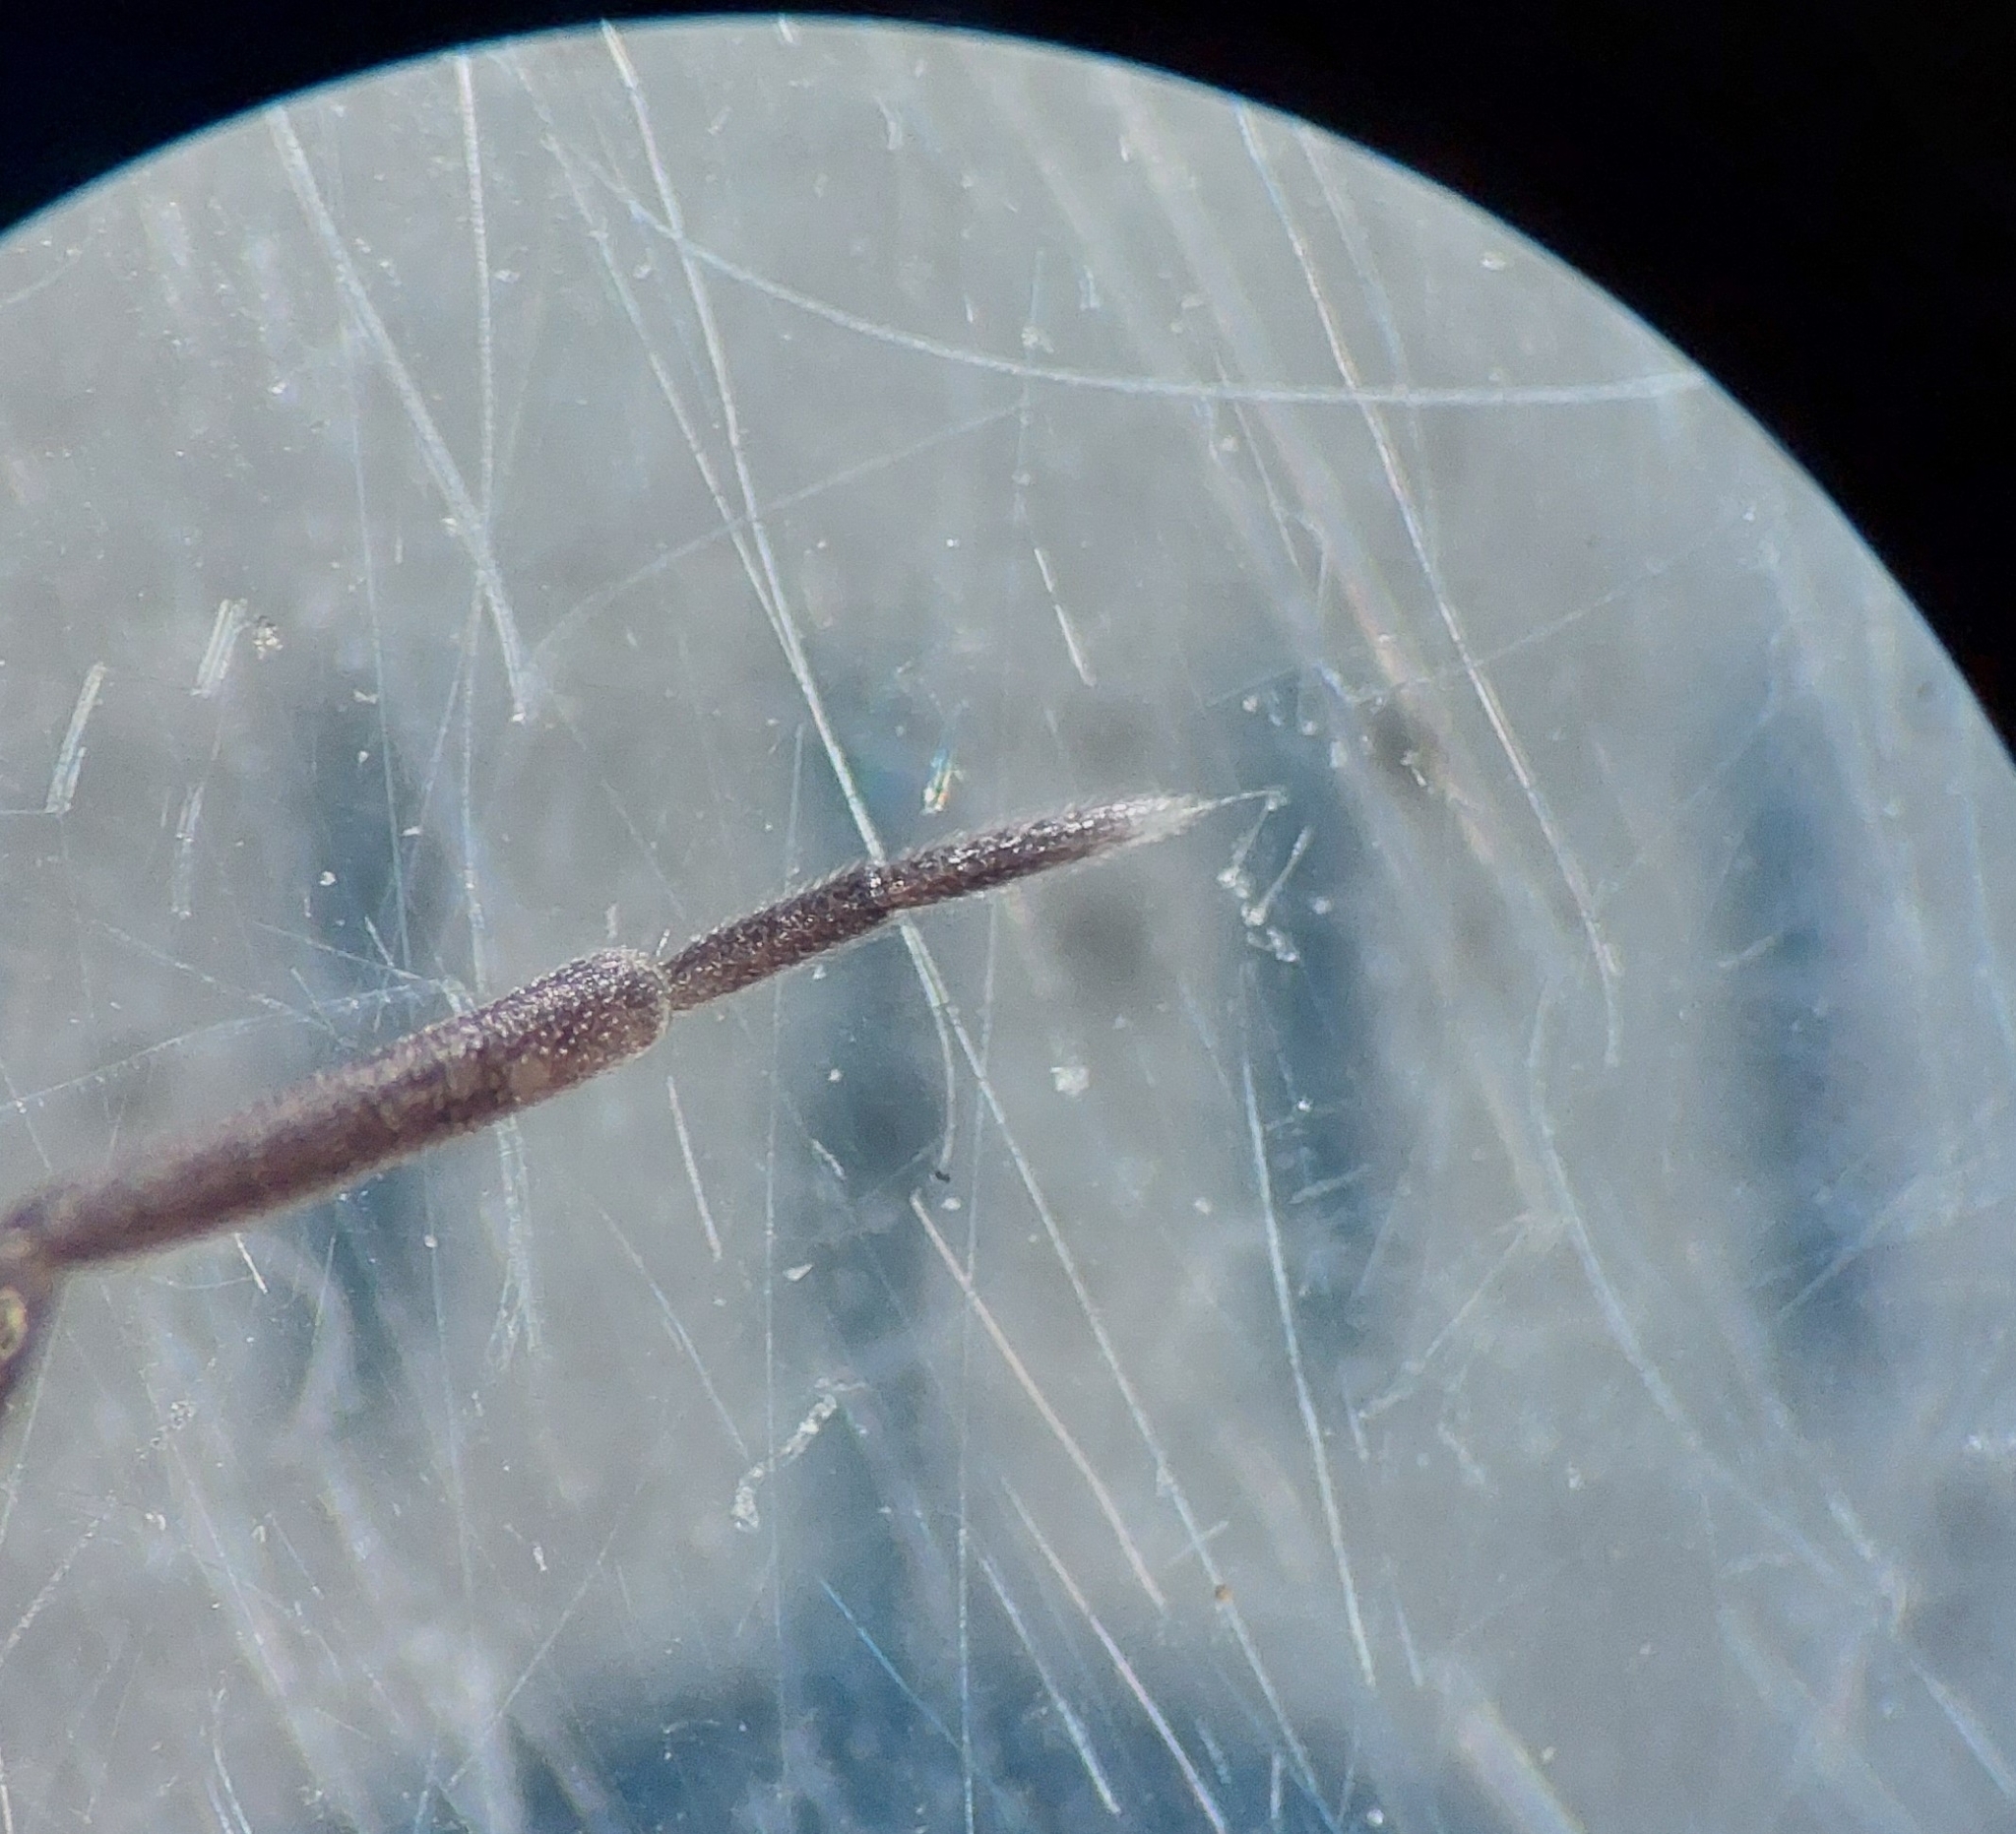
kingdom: Animalia
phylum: Arthropoda
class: Malacostraca
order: Isopoda
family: Cylisticidae
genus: Cylisticus
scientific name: Cylisticus convexus
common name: Curly woodlouse
